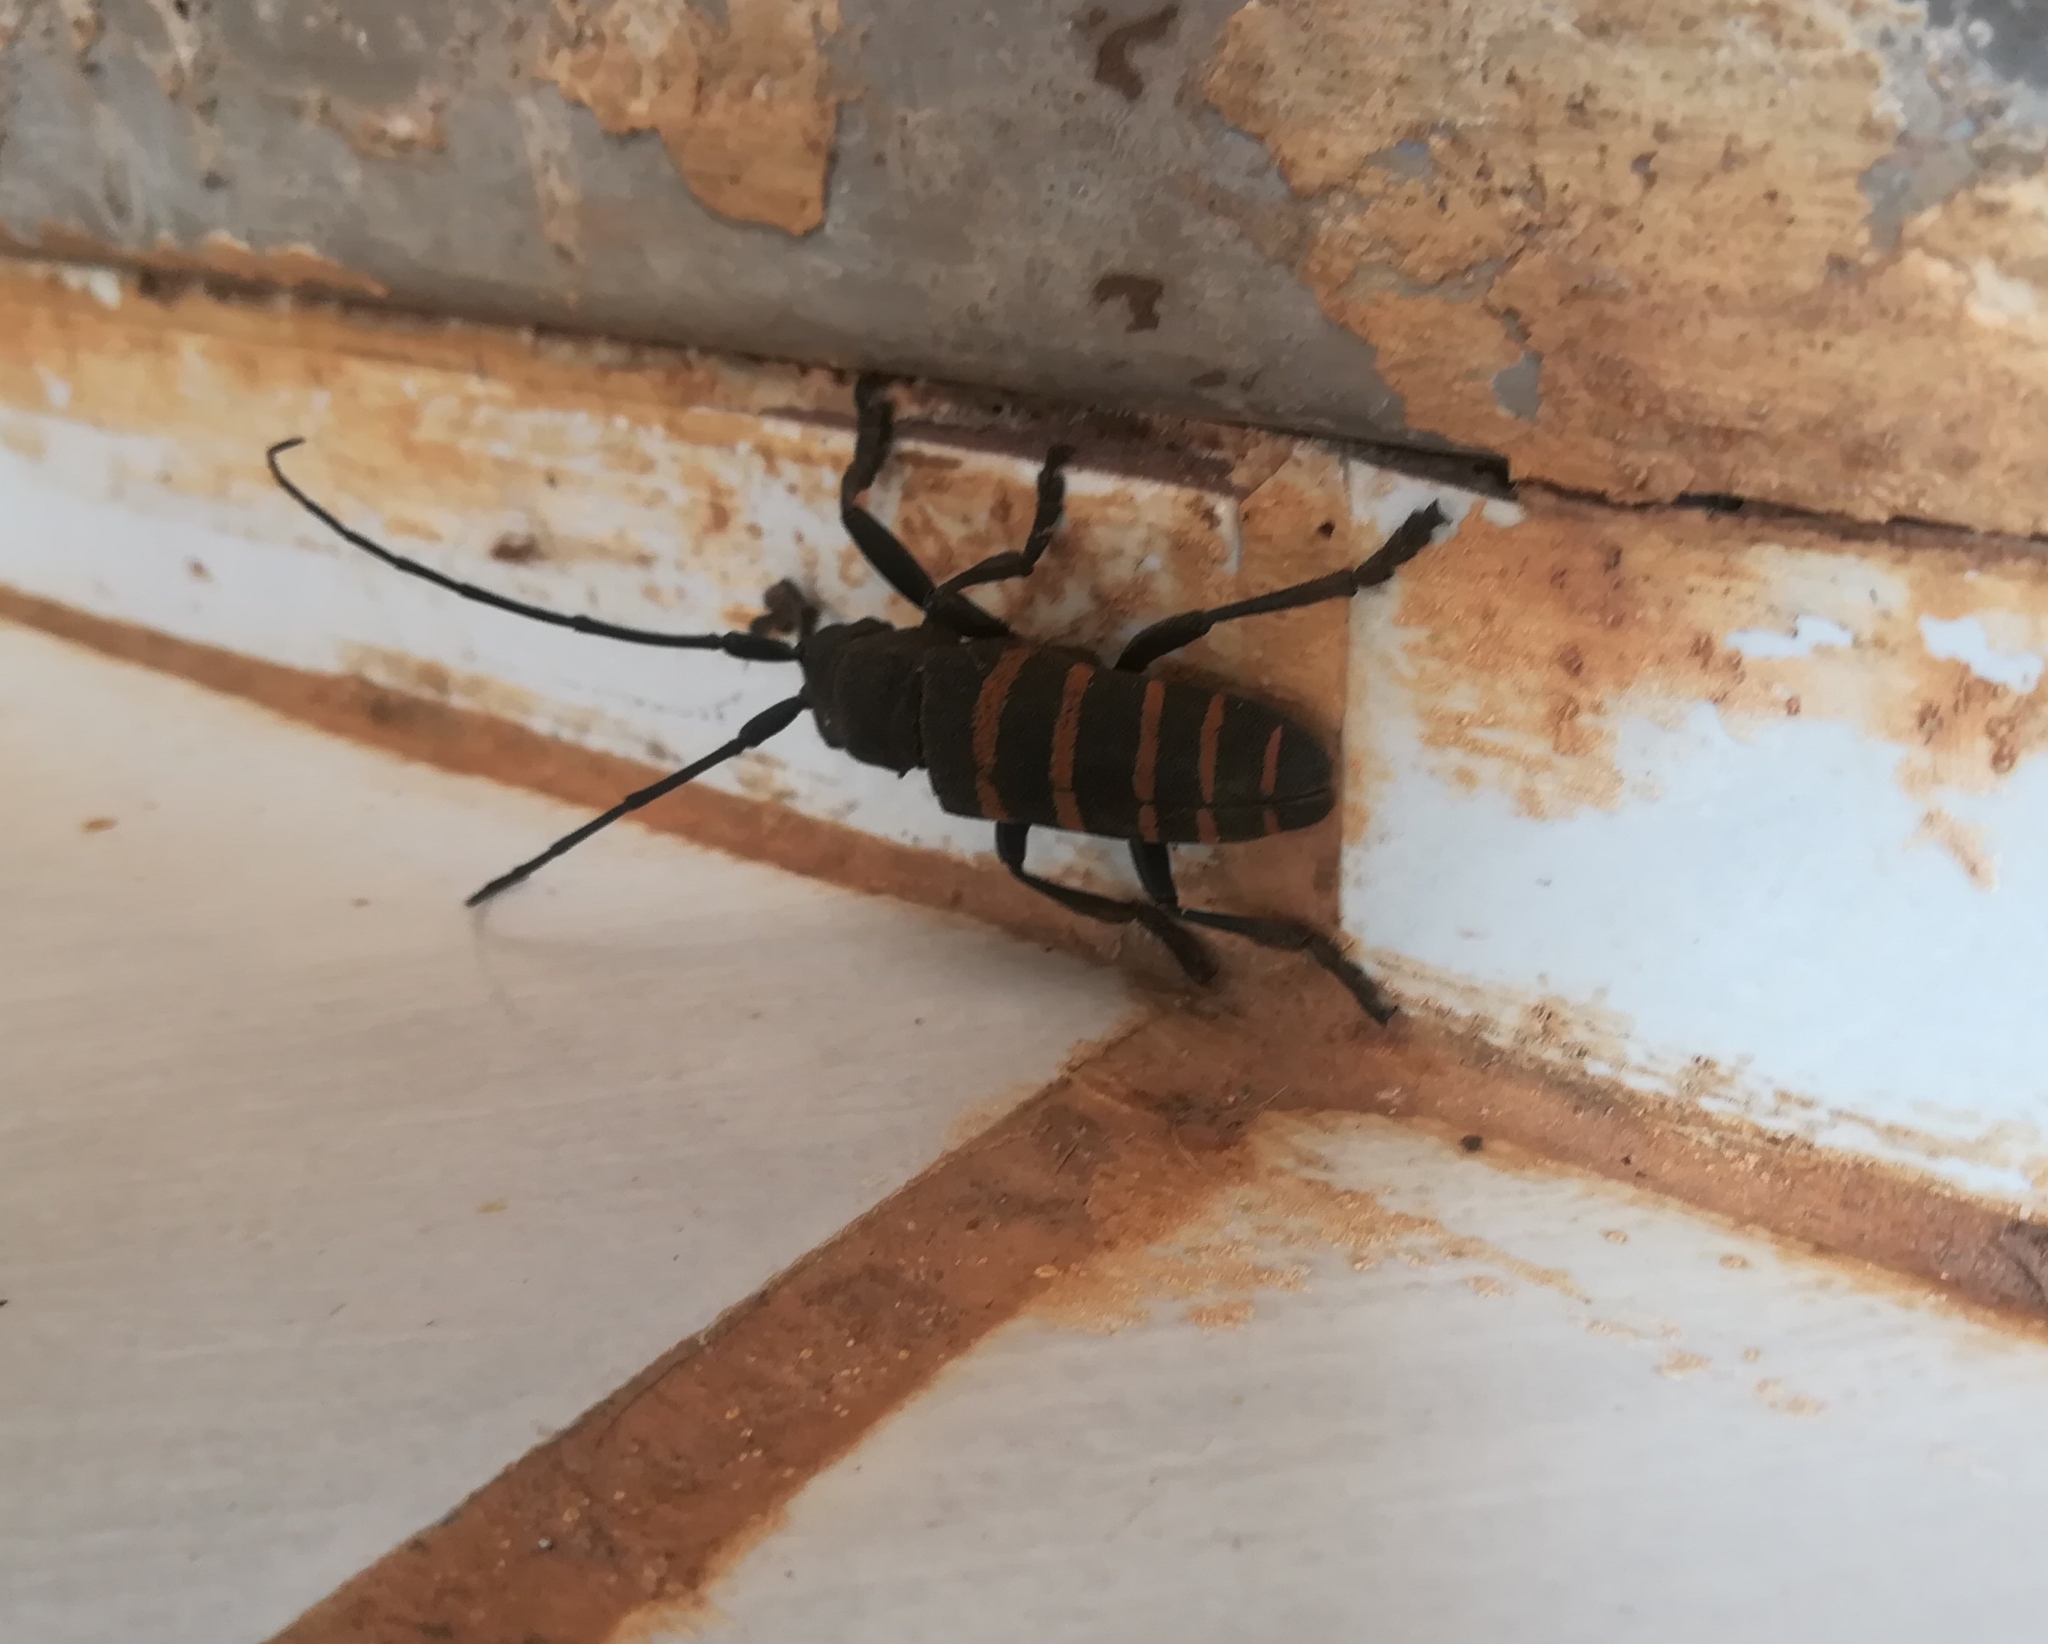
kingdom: Animalia
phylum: Arthropoda
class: Insecta
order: Coleoptera
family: Cerambycidae
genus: Ceroplesis
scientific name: Ceroplesis quinquefasciata
